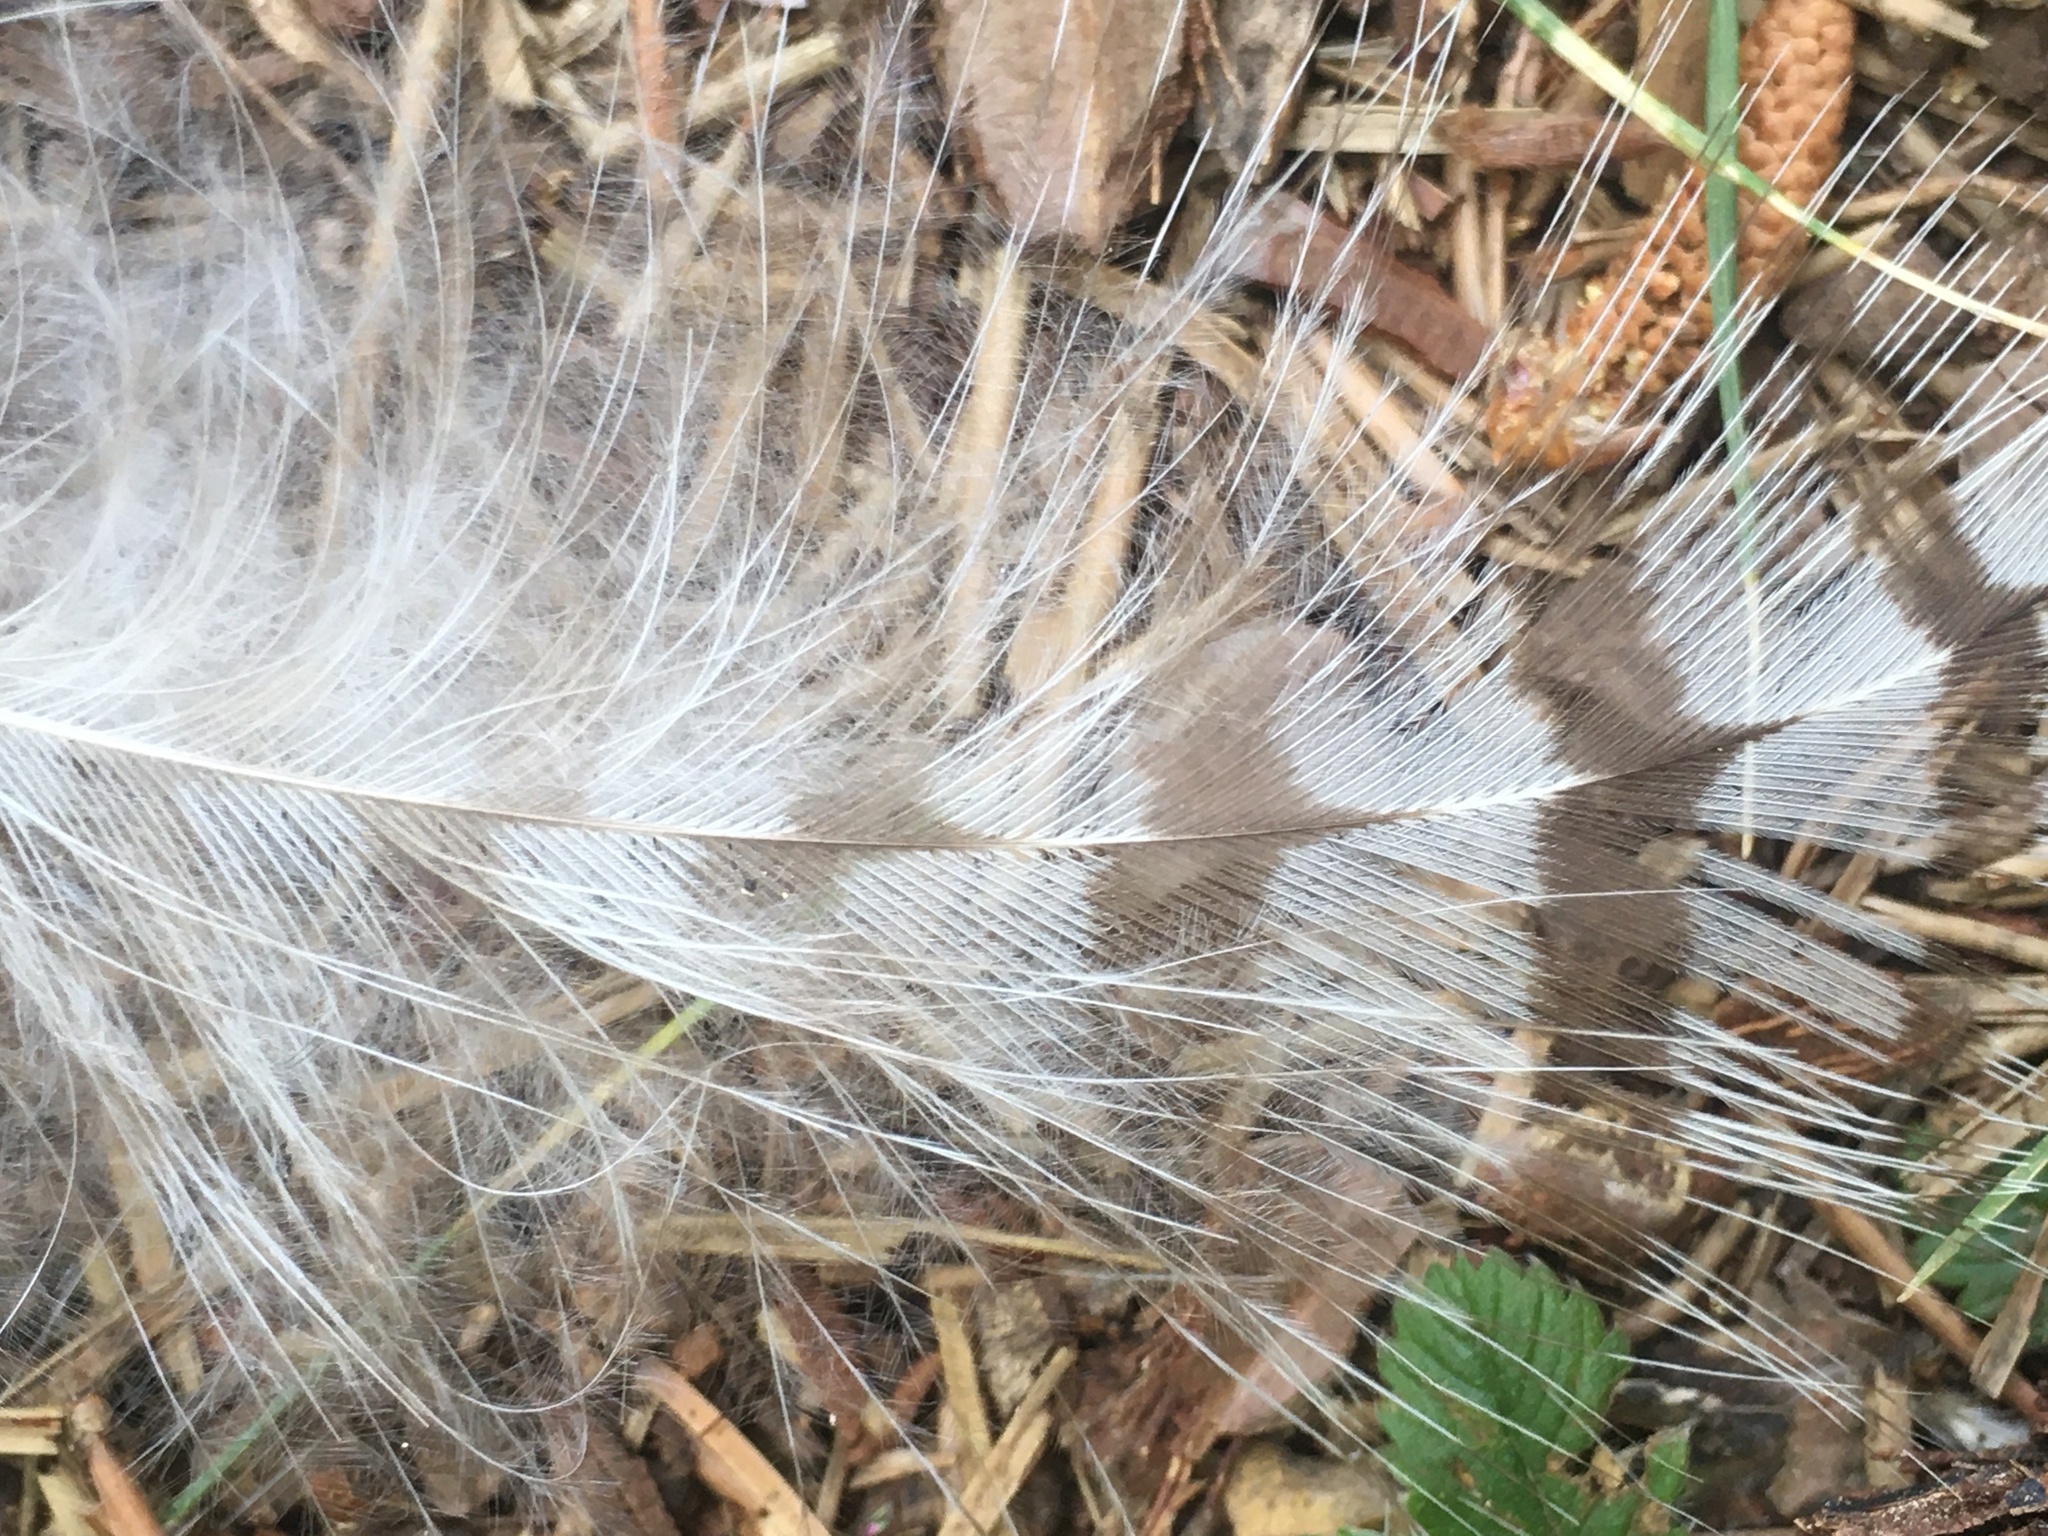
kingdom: Animalia
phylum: Chordata
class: Aves
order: Accipitriformes
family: Accipitridae
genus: Accipiter
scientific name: Accipiter gentilis
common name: Northern goshawk
